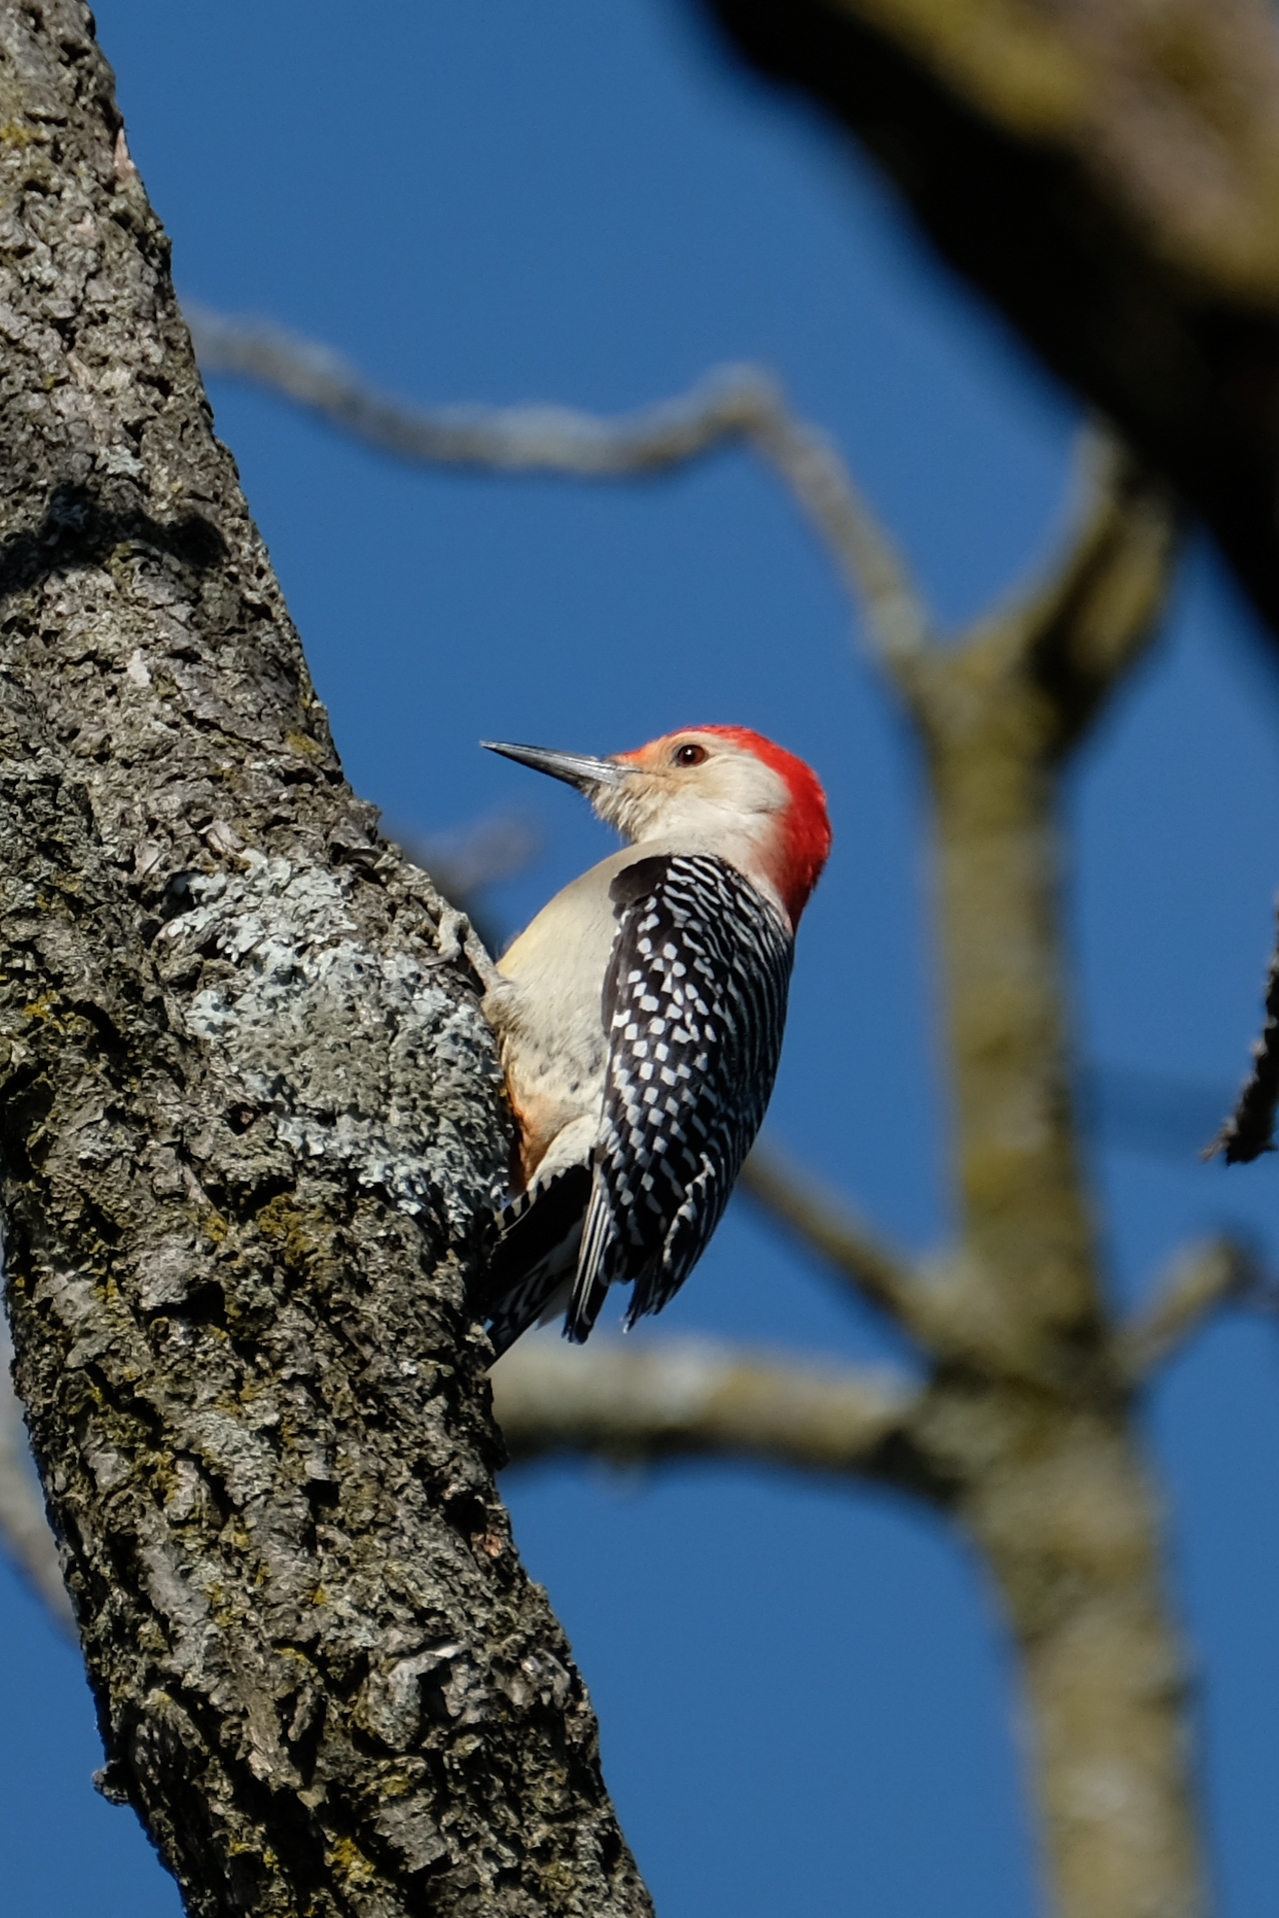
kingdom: Animalia
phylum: Chordata
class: Aves
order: Piciformes
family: Picidae
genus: Melanerpes
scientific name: Melanerpes carolinus
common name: Red-bellied woodpecker
